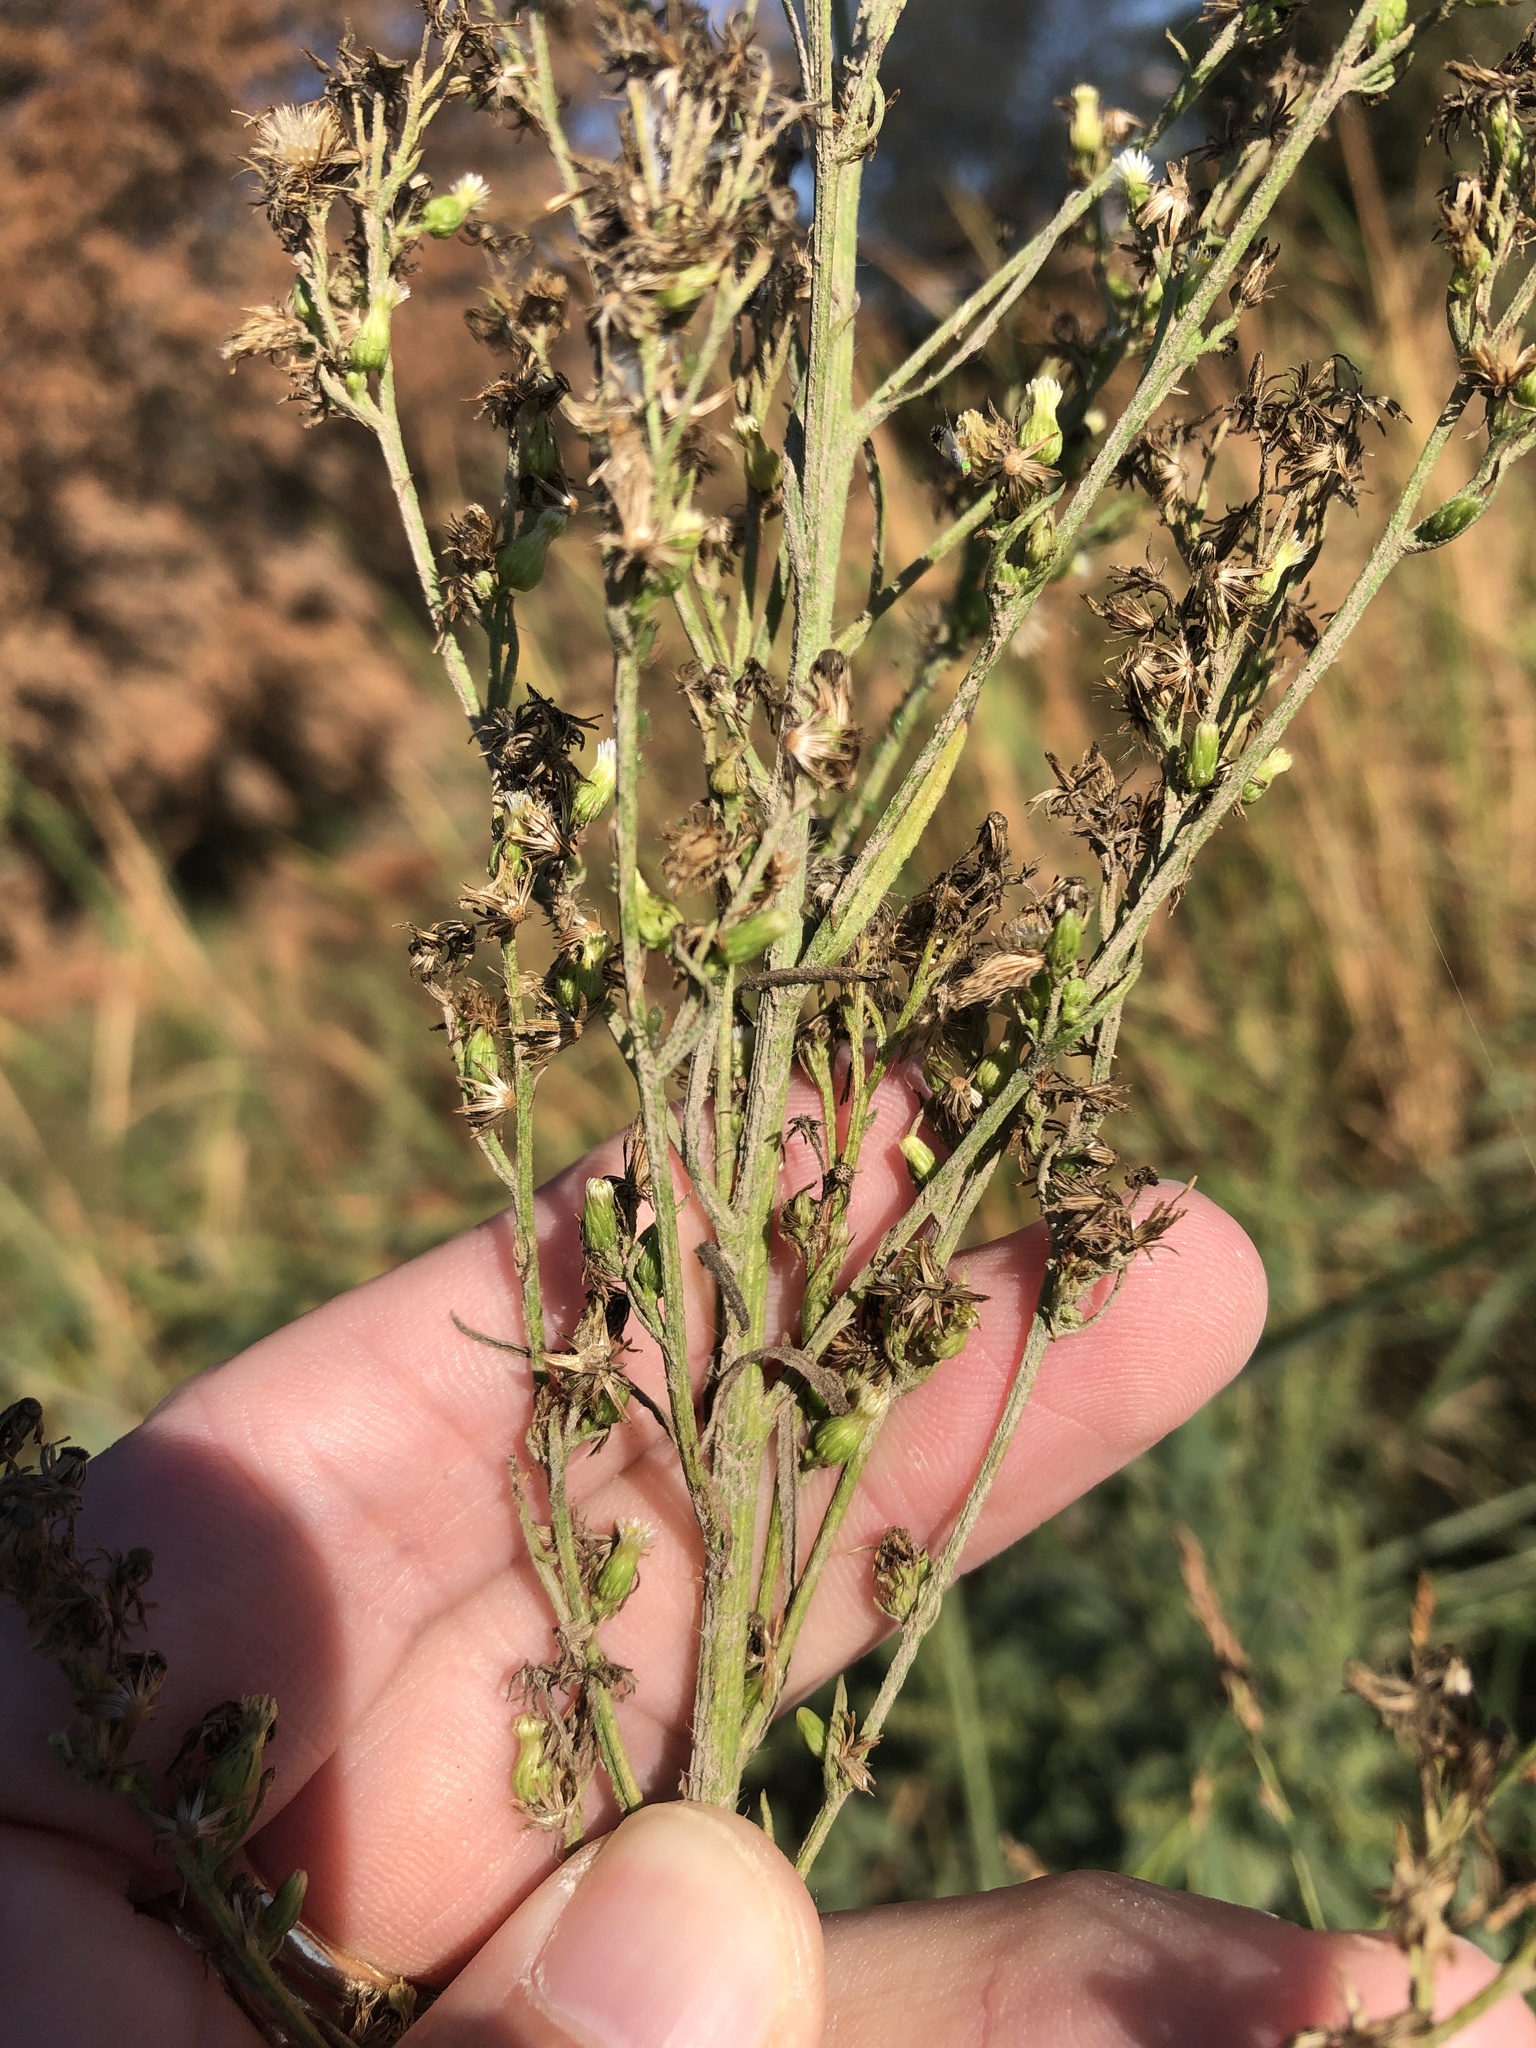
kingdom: Plantae
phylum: Tracheophyta
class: Magnoliopsida
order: Asterales
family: Asteraceae
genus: Erigeron
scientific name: Erigeron canadensis
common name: Canadian fleabane
